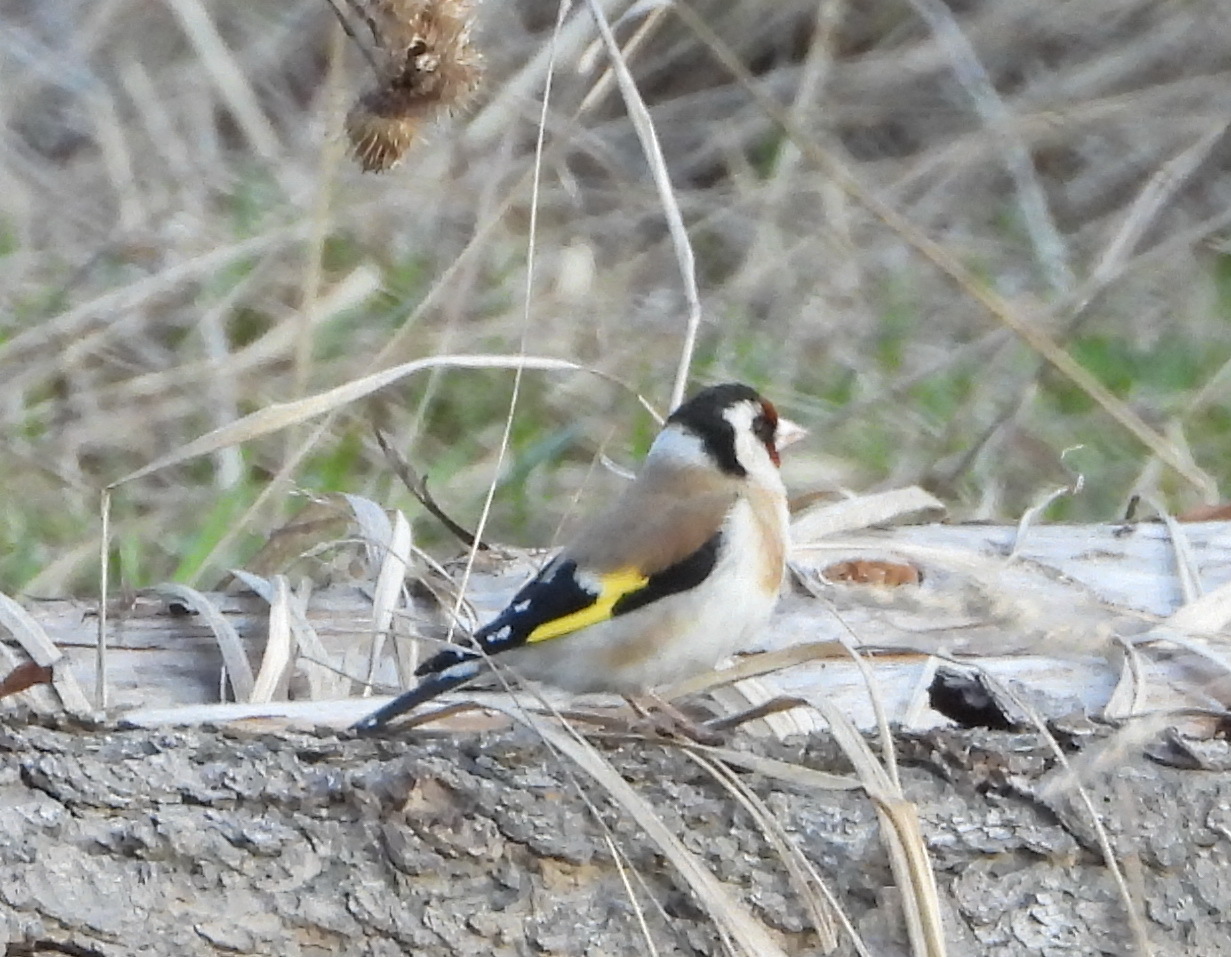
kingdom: Animalia
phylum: Chordata
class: Aves
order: Passeriformes
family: Fringillidae
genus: Carduelis
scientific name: Carduelis carduelis
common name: European goldfinch
